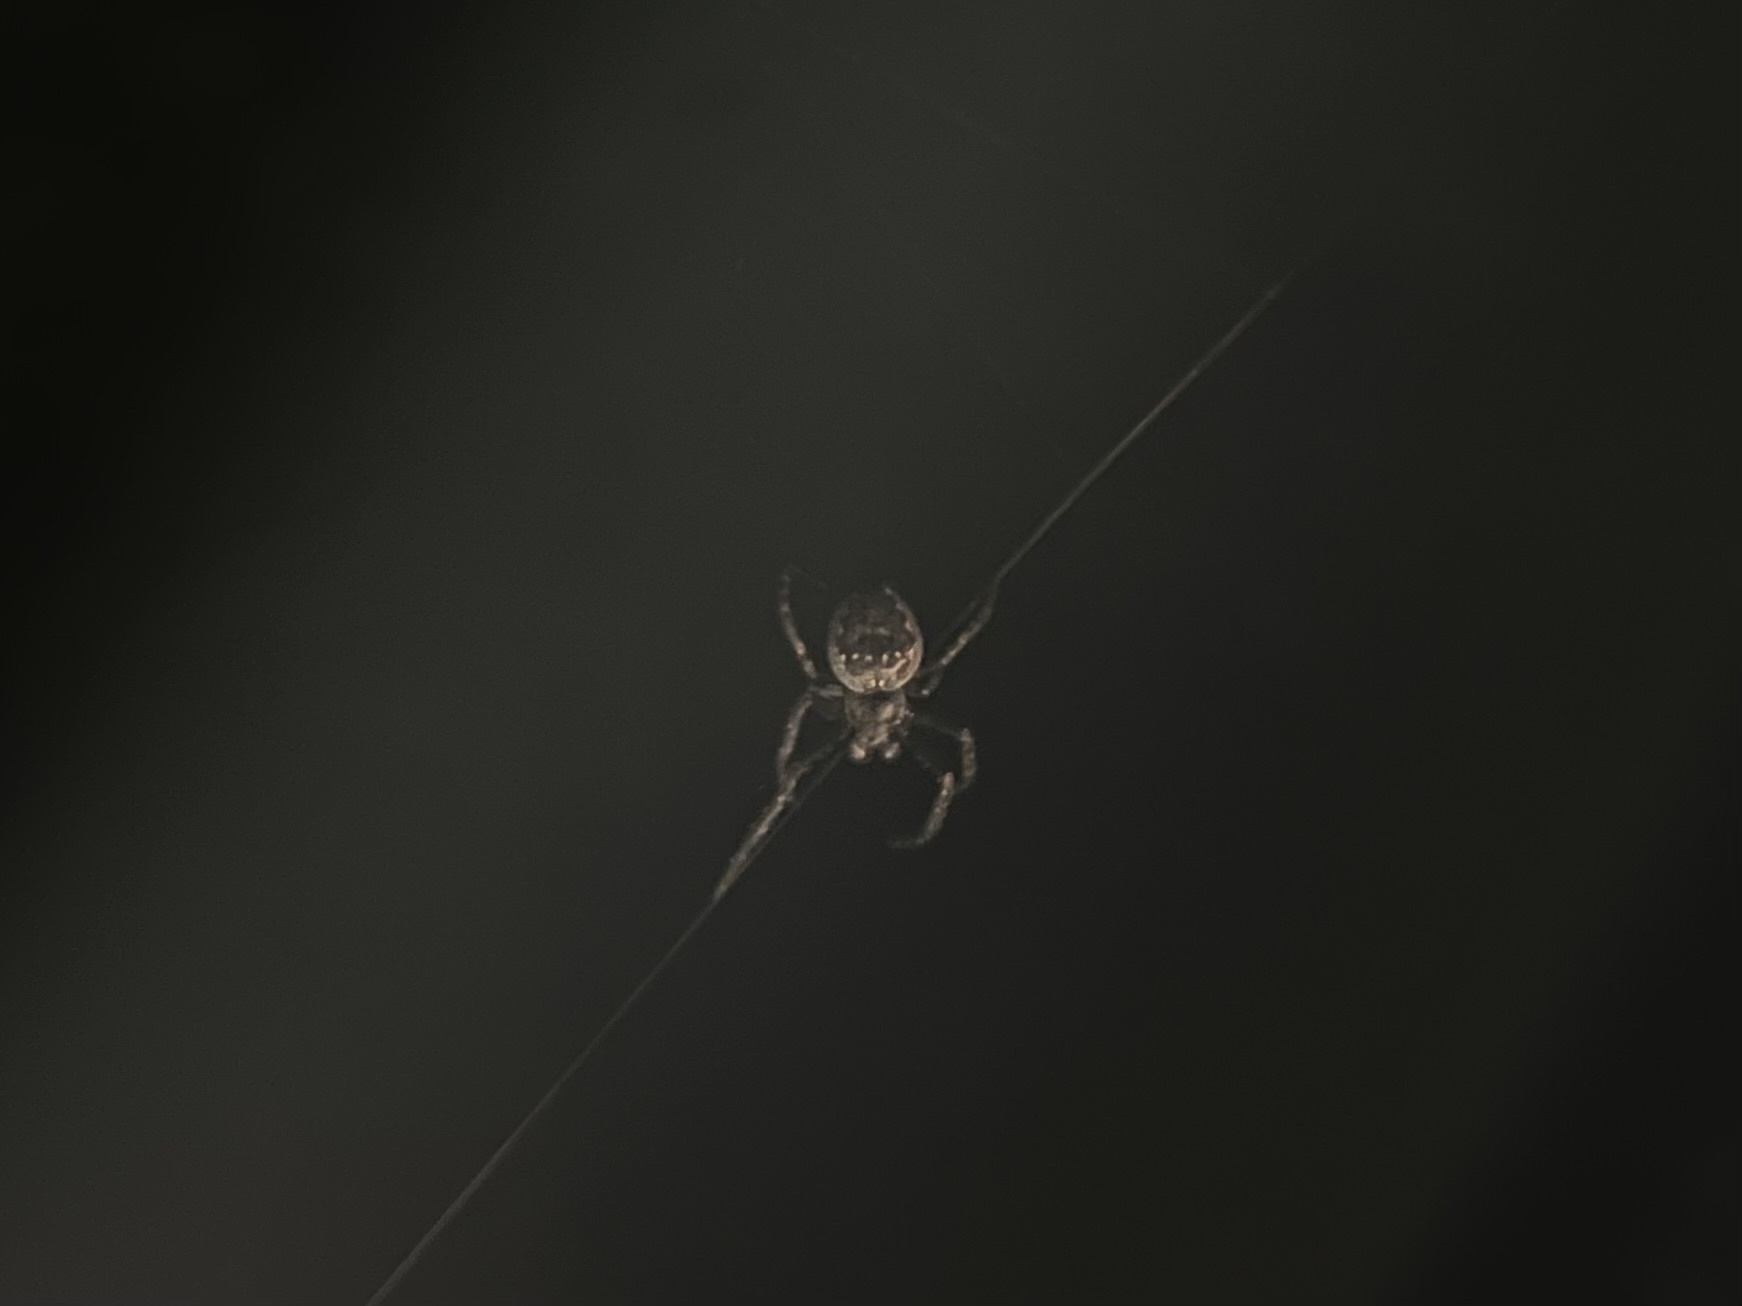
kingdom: Animalia
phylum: Arthropoda
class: Arachnida
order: Araneae
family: Araneidae
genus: Nuctenea
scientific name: Nuctenea umbratica
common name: Toad spider
